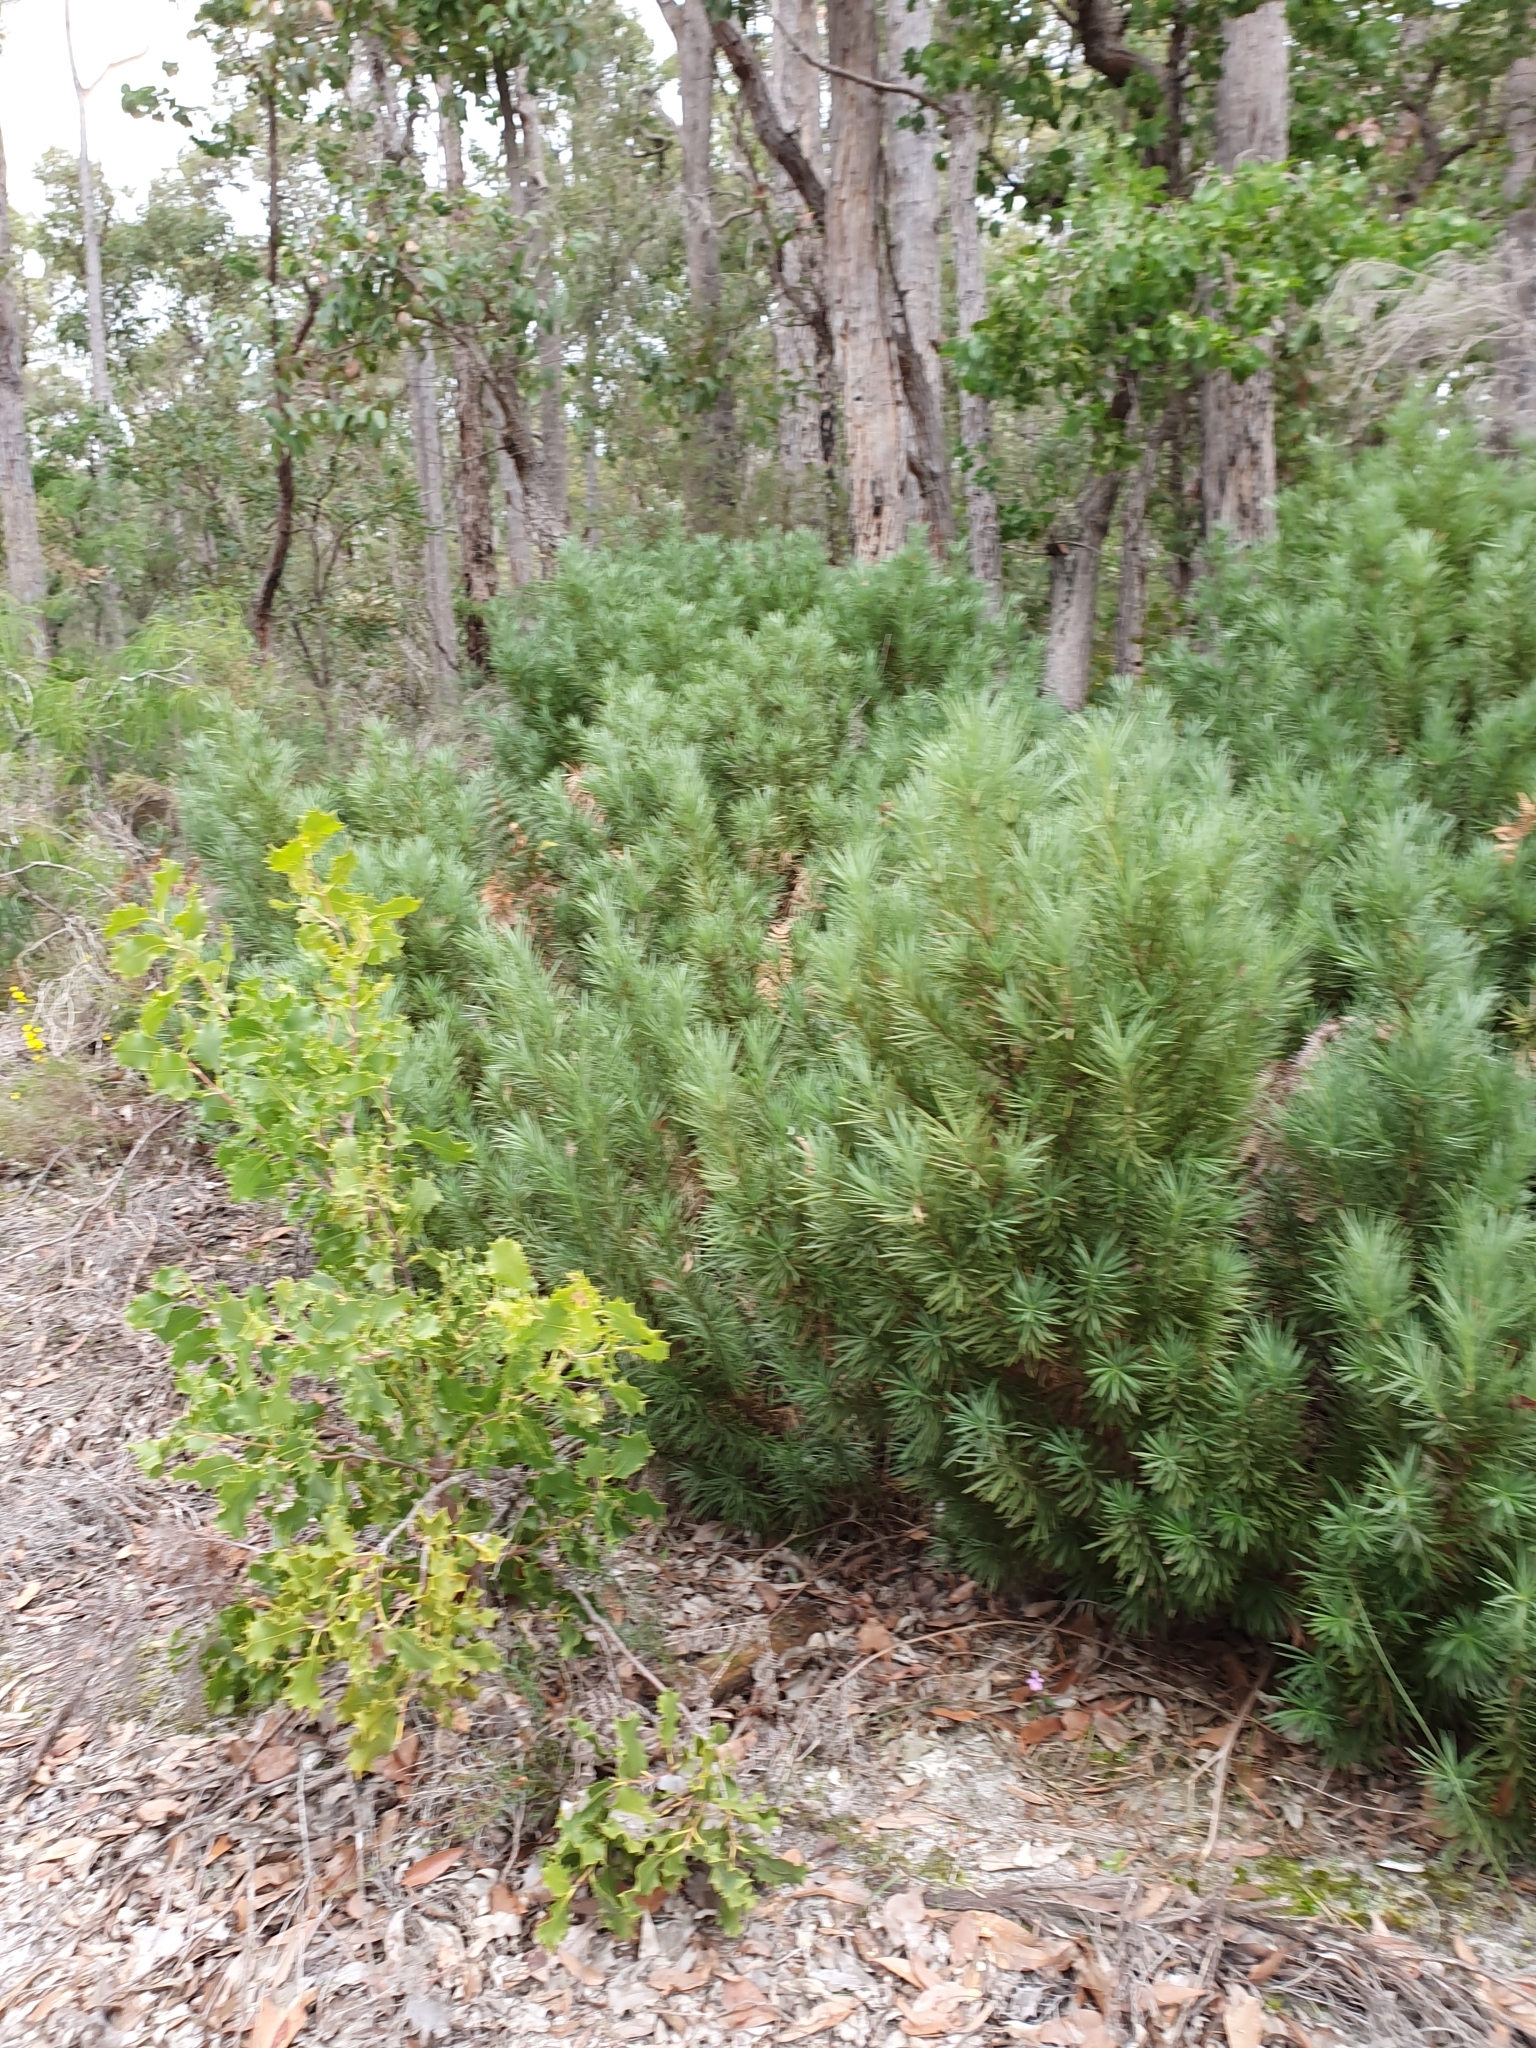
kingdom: Plantae
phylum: Tracheophyta
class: Pinopsida
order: Pinales
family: Podocarpaceae
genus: Podocarpus
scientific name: Podocarpus drouynianus
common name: Emu berry
